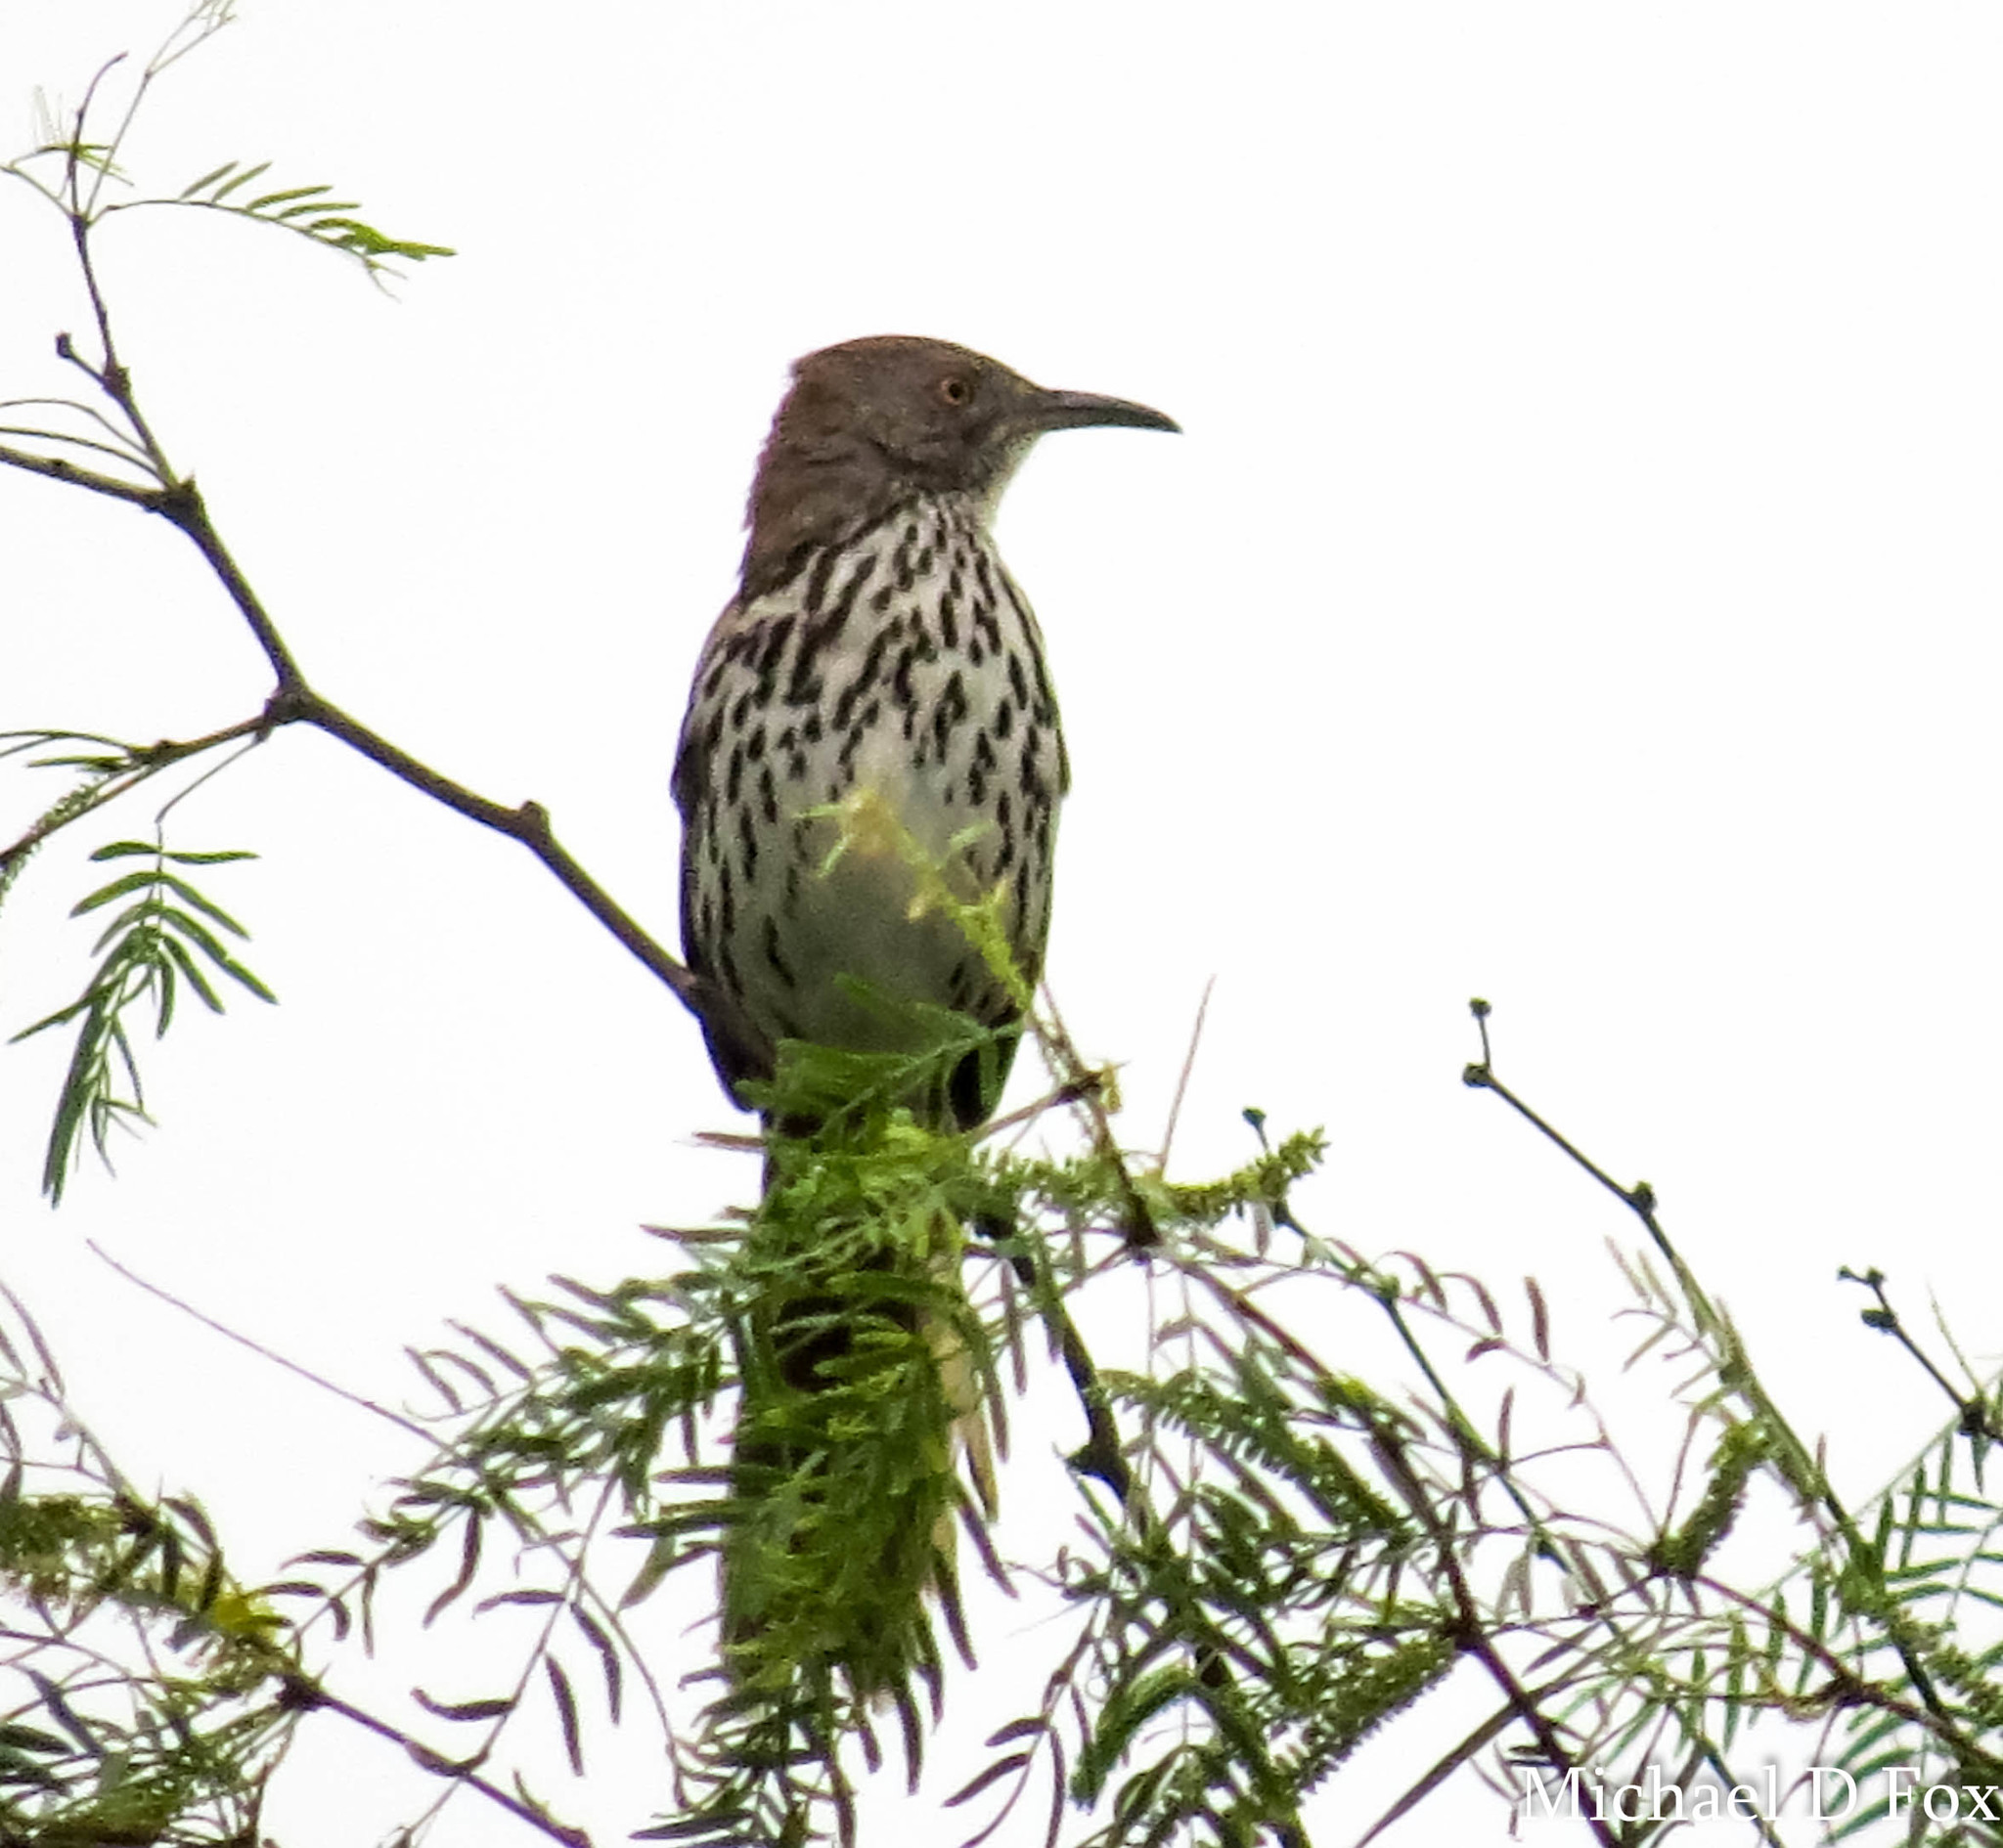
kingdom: Animalia
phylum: Chordata
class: Aves
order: Passeriformes
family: Mimidae
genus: Toxostoma
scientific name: Toxostoma longirostre
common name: Long-billed thrasher
